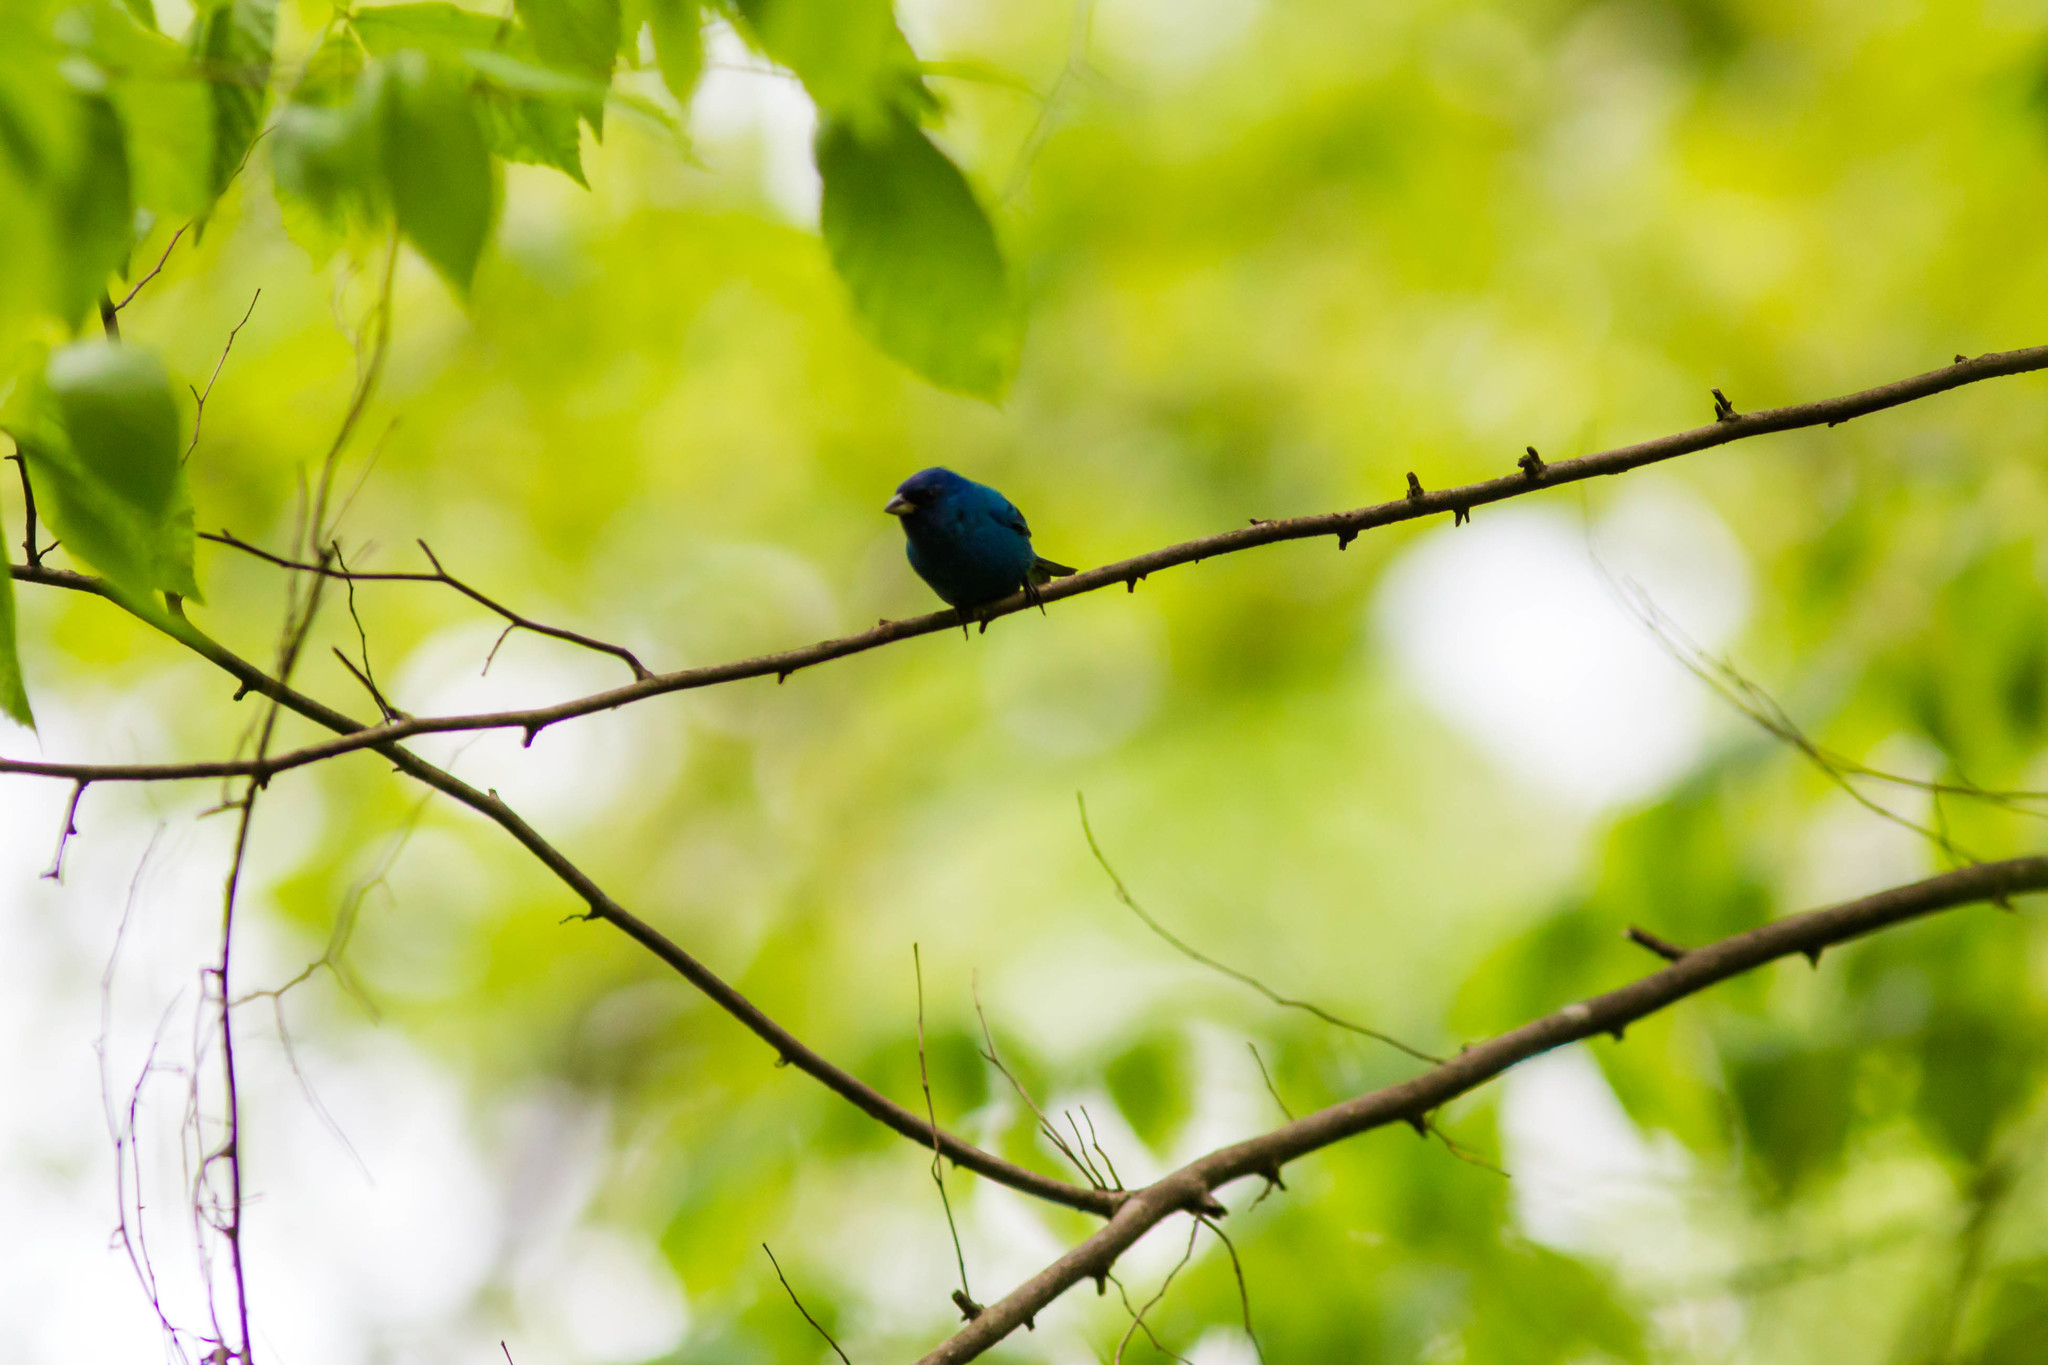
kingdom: Animalia
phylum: Chordata
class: Aves
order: Passeriformes
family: Cardinalidae
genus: Passerina
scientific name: Passerina cyanea
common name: Indigo bunting
